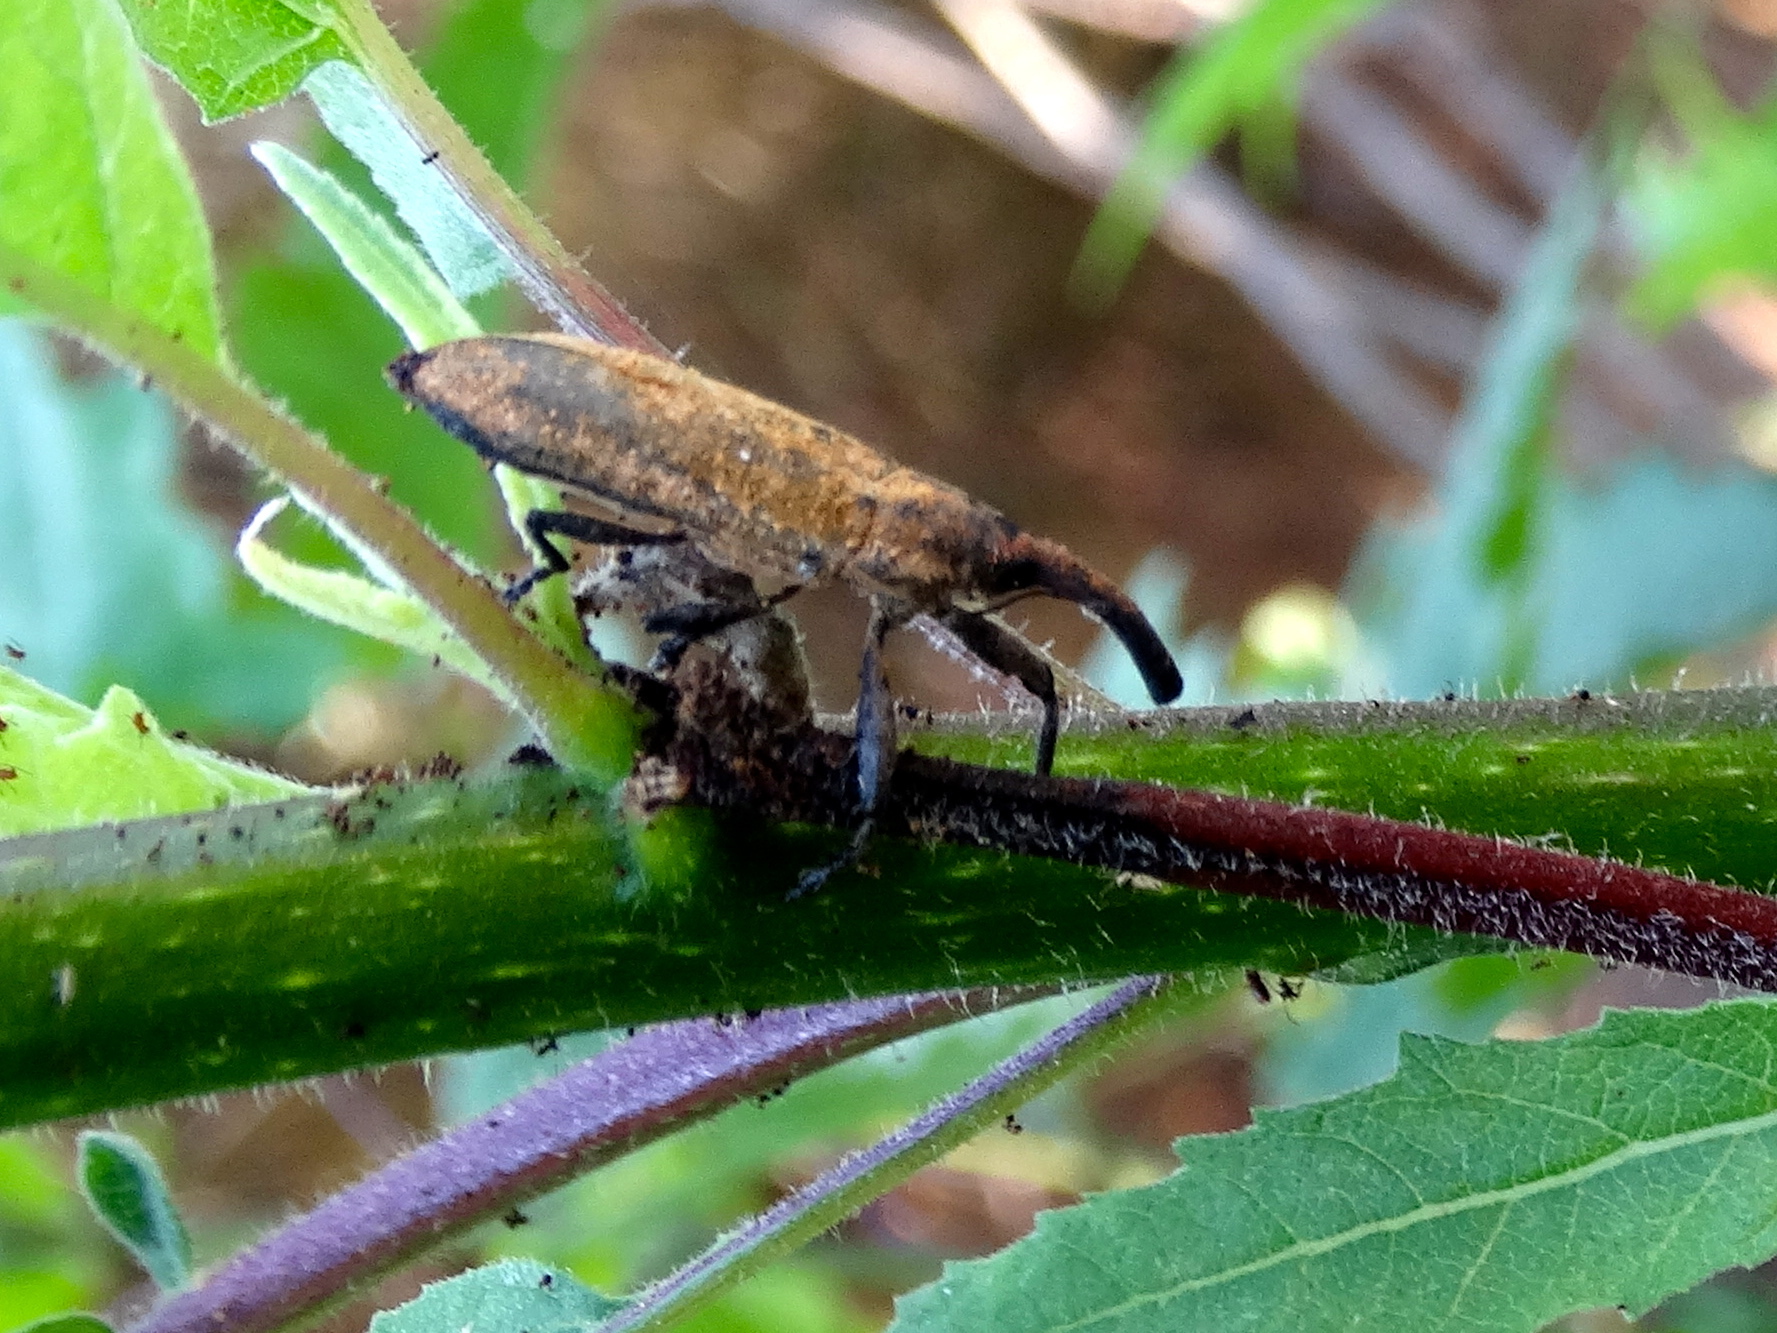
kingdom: Animalia
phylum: Arthropoda
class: Insecta
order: Coleoptera
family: Curculionidae
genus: Lixus
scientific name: Lixus
